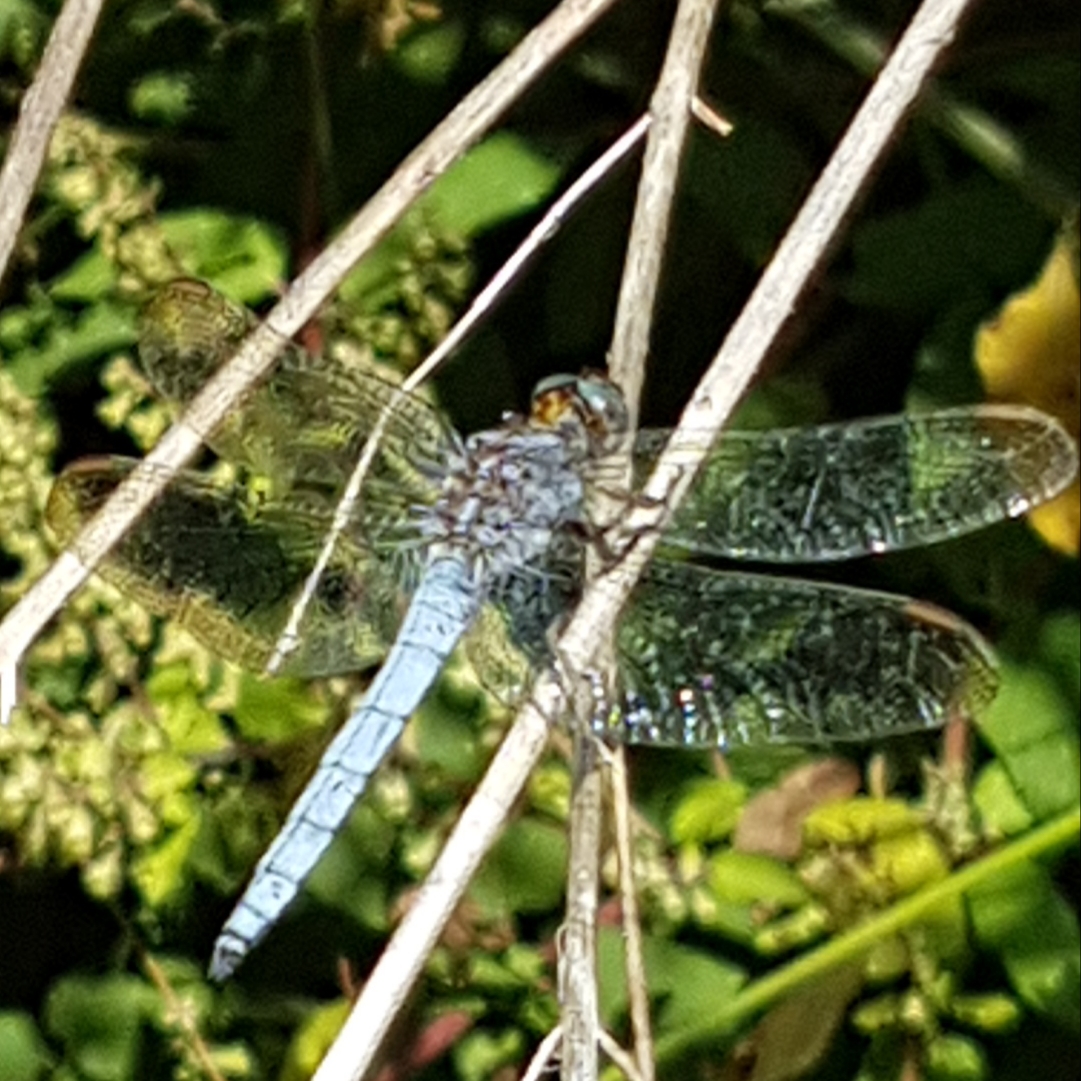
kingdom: Animalia
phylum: Arthropoda
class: Insecta
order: Odonata
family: Libellulidae
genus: Orthetrum
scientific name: Orthetrum coerulescens
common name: Keeled skimmer
